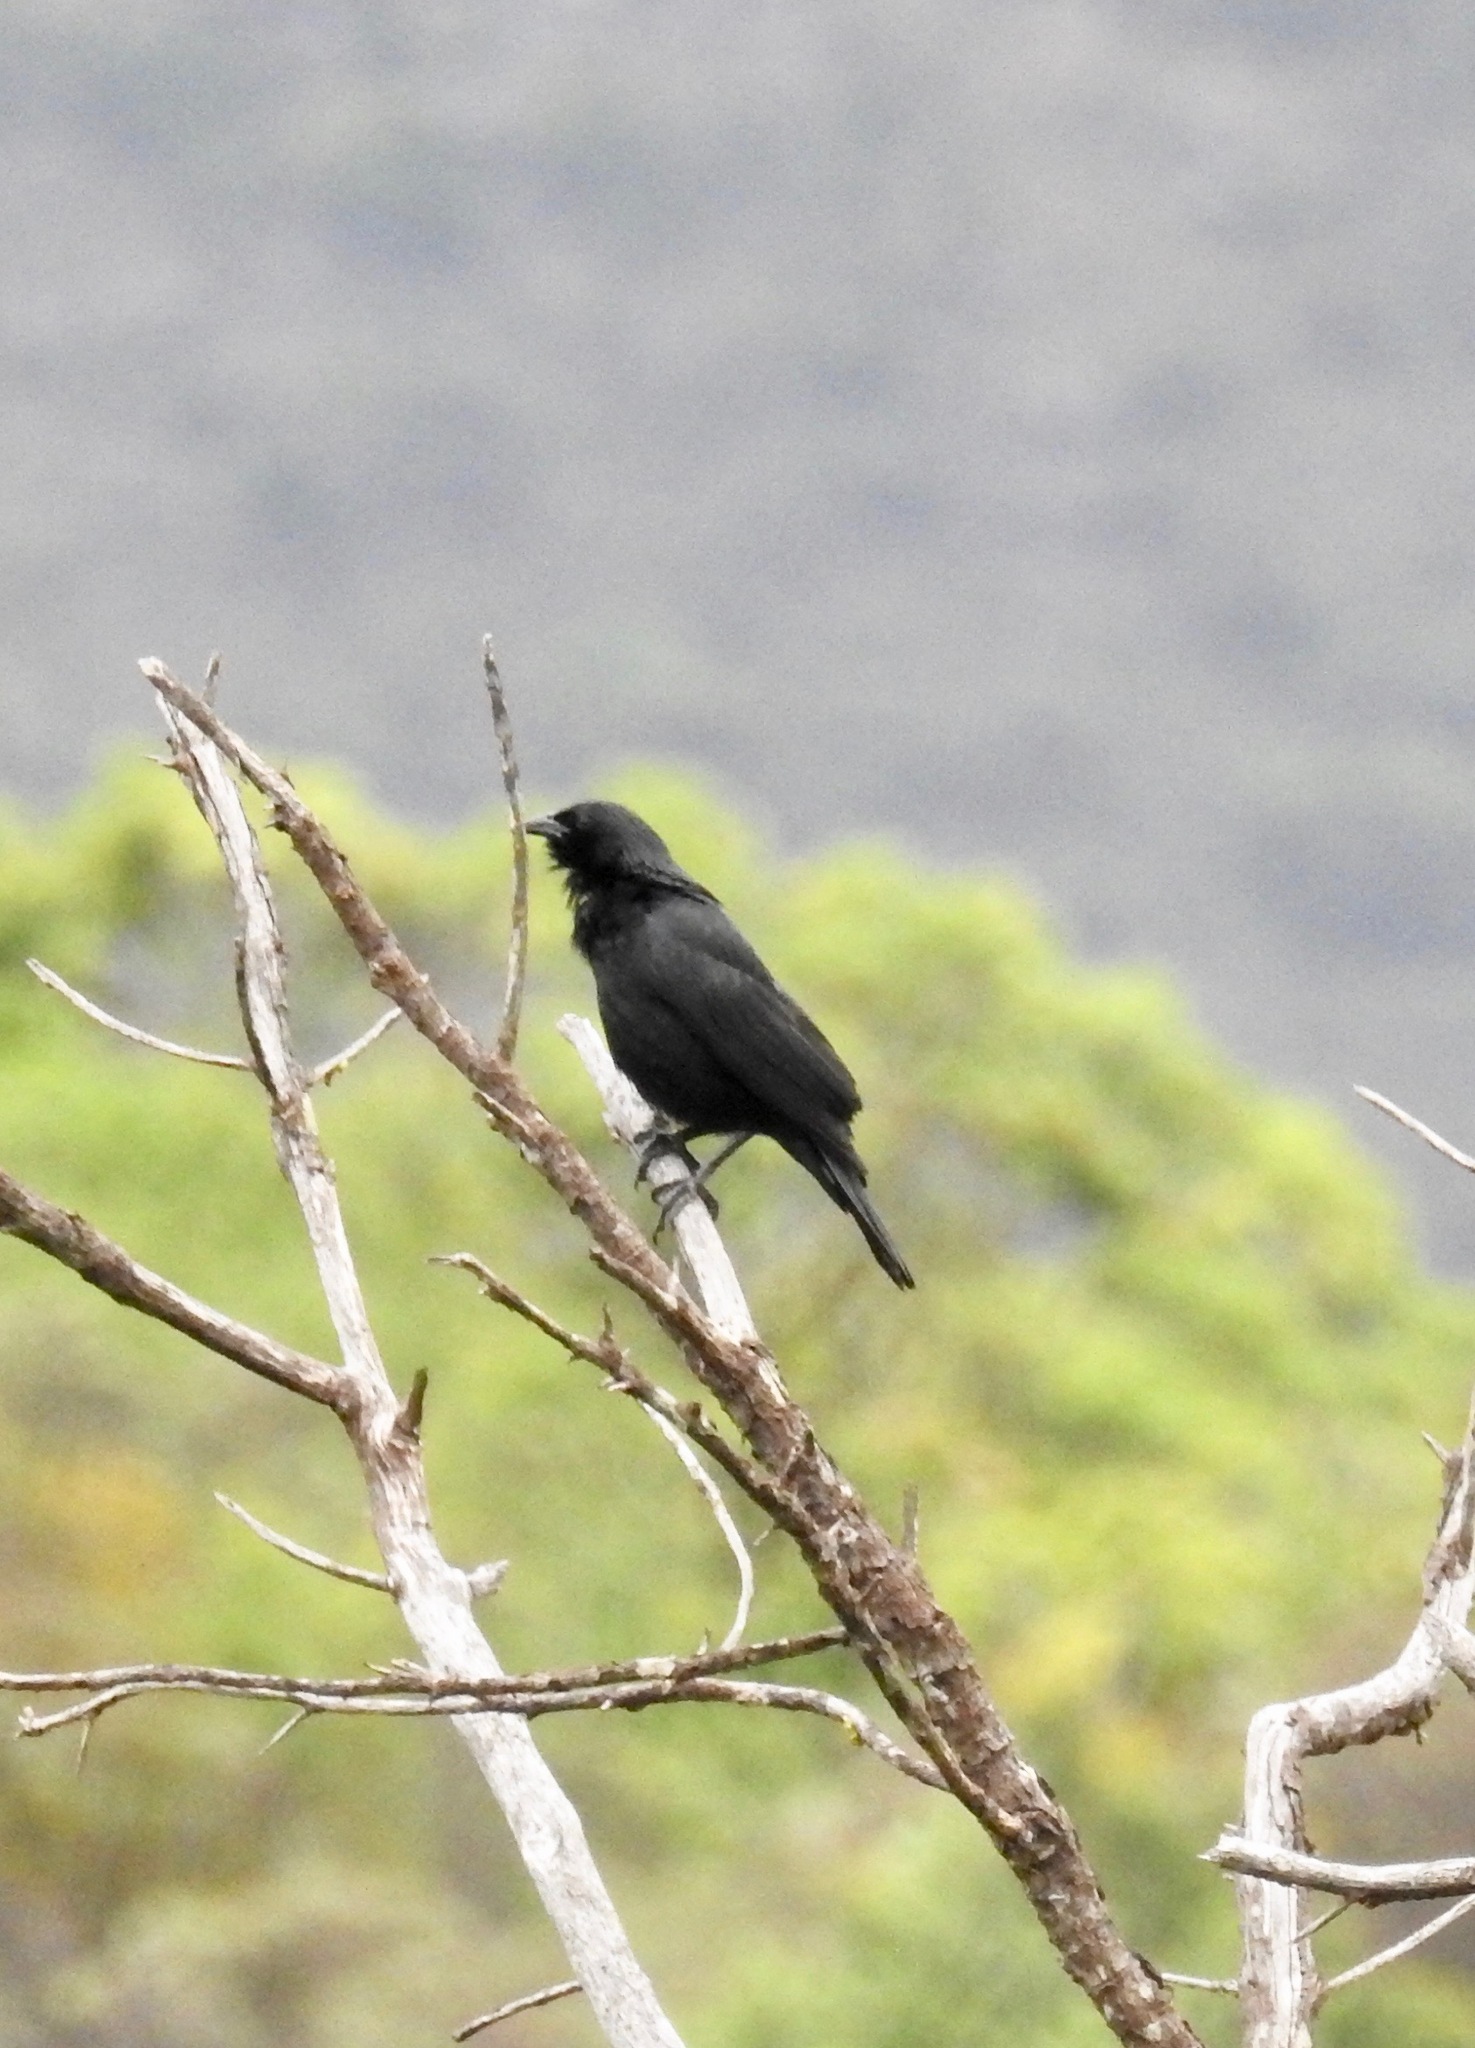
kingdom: Animalia
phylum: Chordata
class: Aves
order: Passeriformes
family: Icteridae
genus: Gnorimopsar
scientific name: Gnorimopsar chopi
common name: Chopi blackbird
